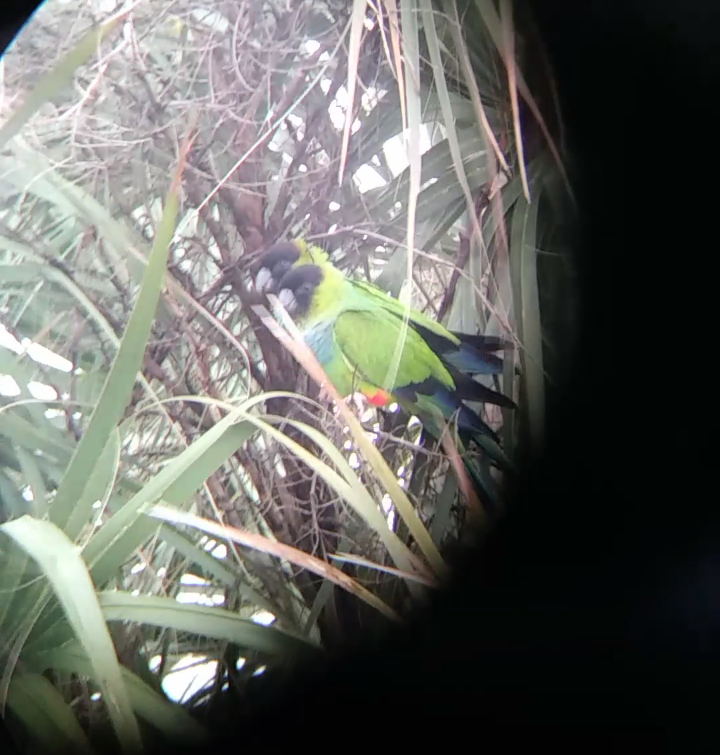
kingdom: Animalia
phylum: Chordata
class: Aves
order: Psittaciformes
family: Psittacidae
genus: Nandayus
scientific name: Nandayus nenday
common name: Nanday parakeet
